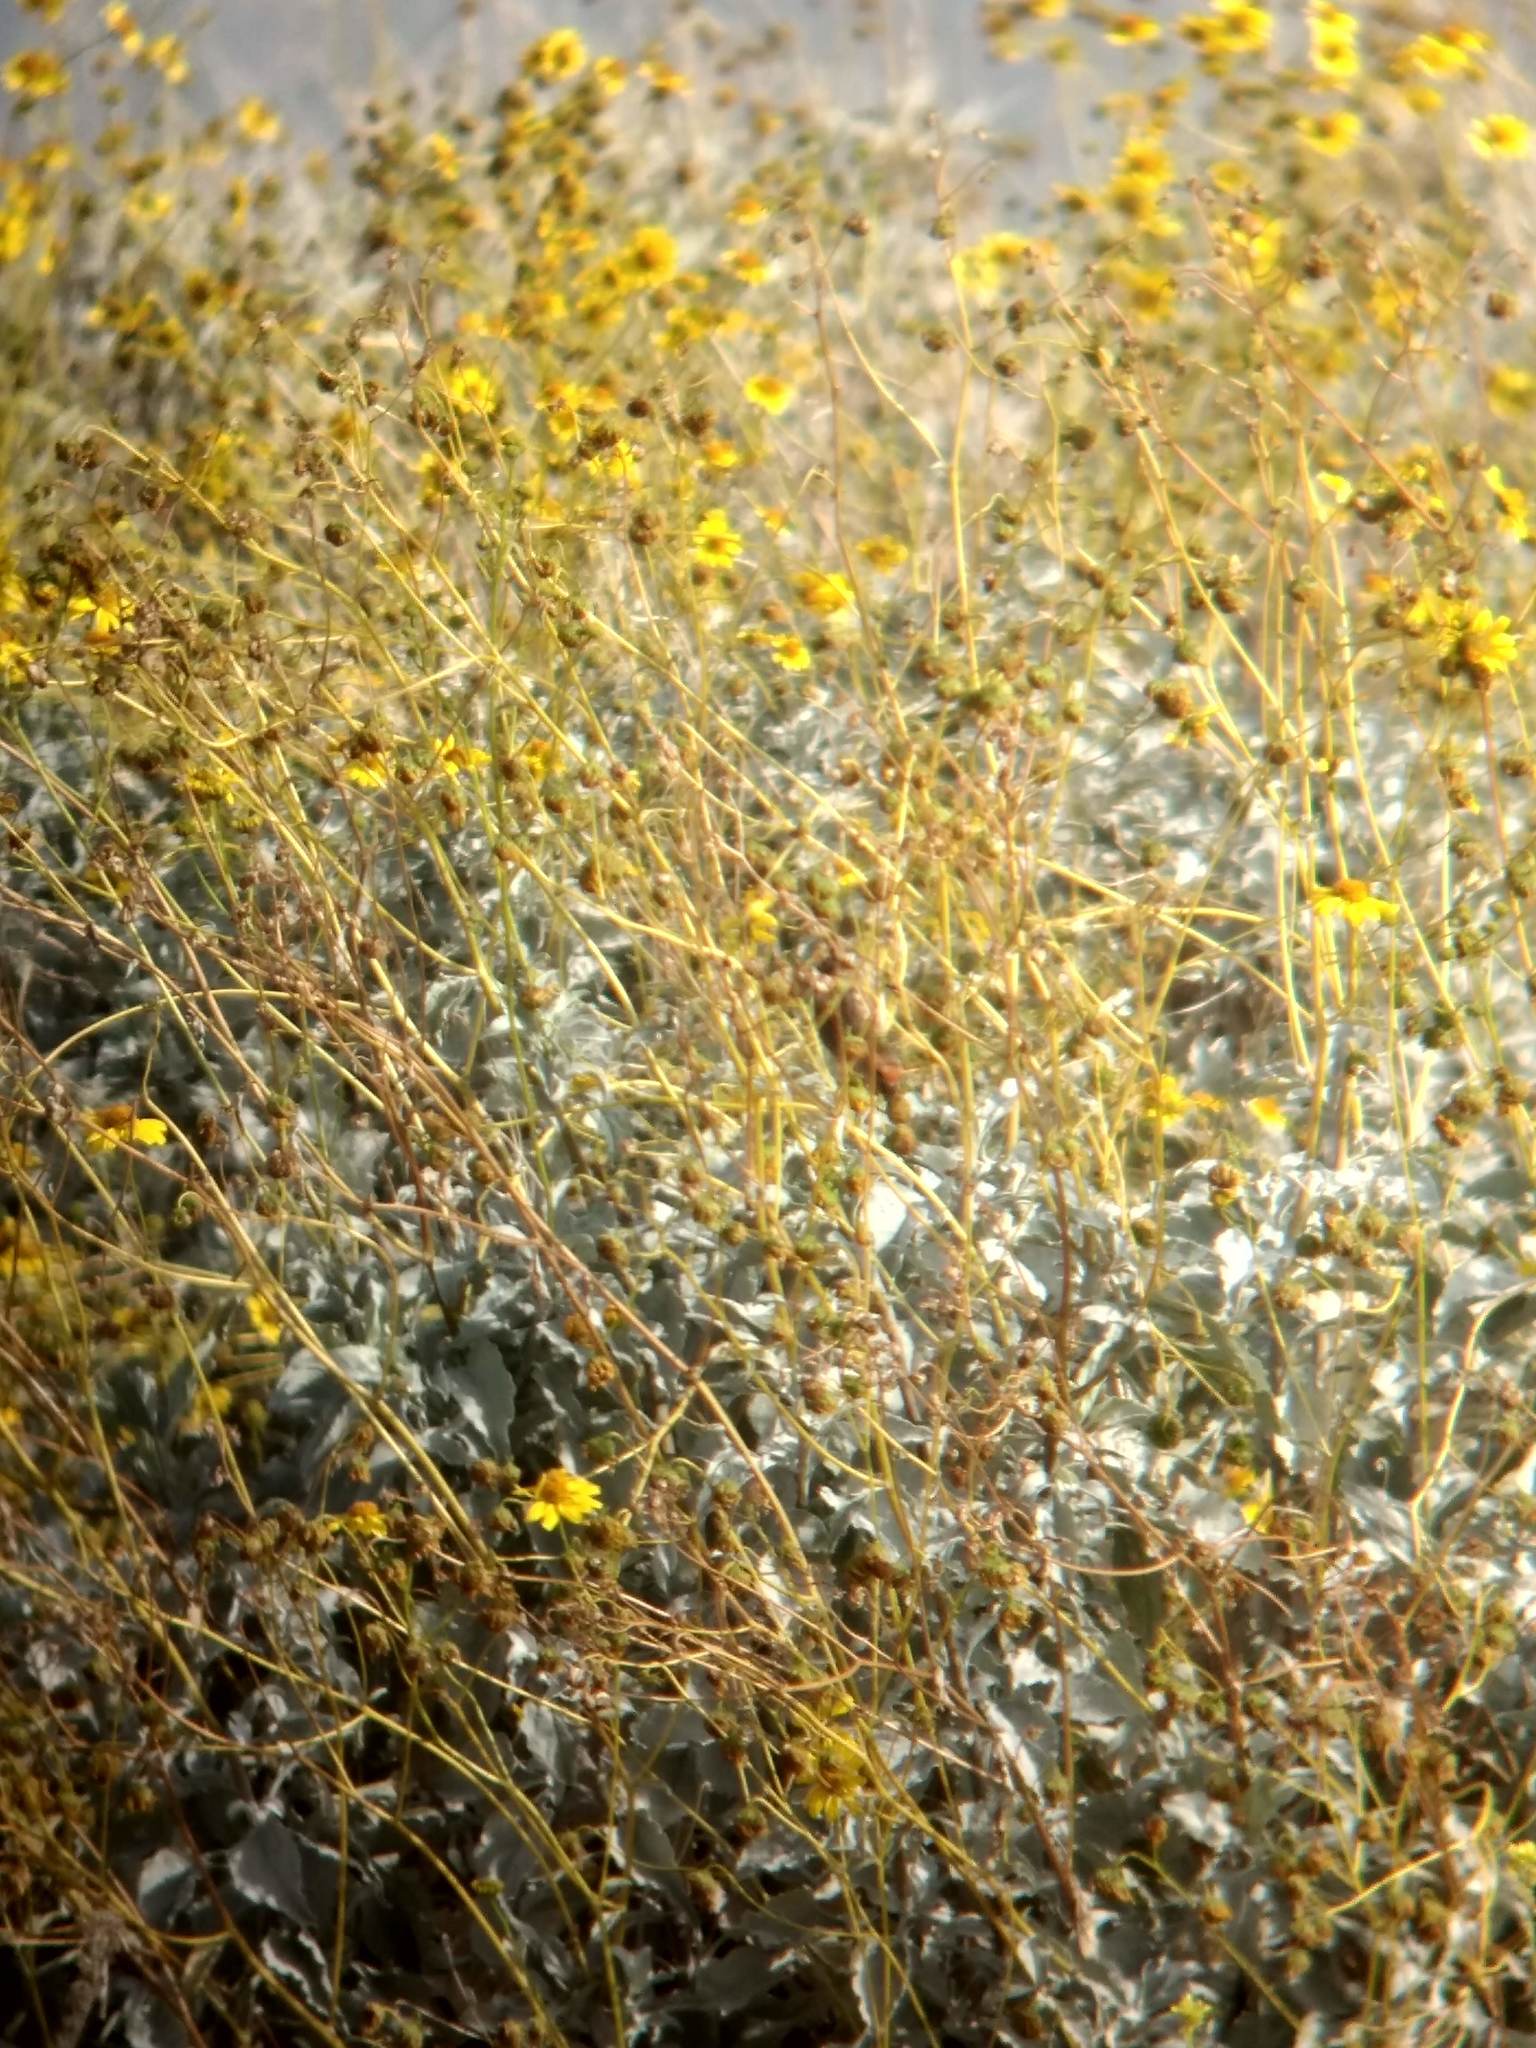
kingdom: Plantae
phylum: Tracheophyta
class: Magnoliopsida
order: Asterales
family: Asteraceae
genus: Encelia
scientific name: Encelia farinosa
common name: Brittlebush
